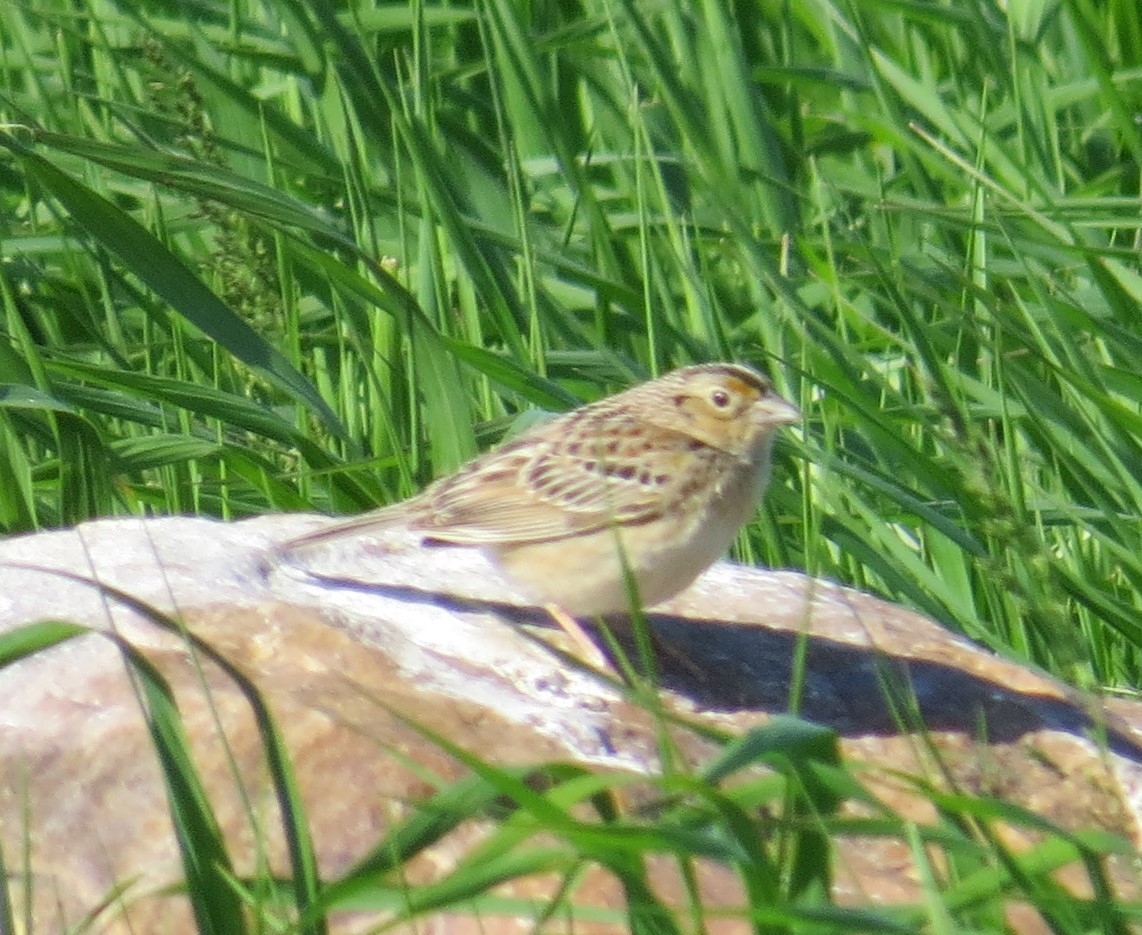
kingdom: Animalia
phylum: Chordata
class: Aves
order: Passeriformes
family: Passerellidae
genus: Ammodramus
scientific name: Ammodramus savannarum
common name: Grasshopper sparrow
